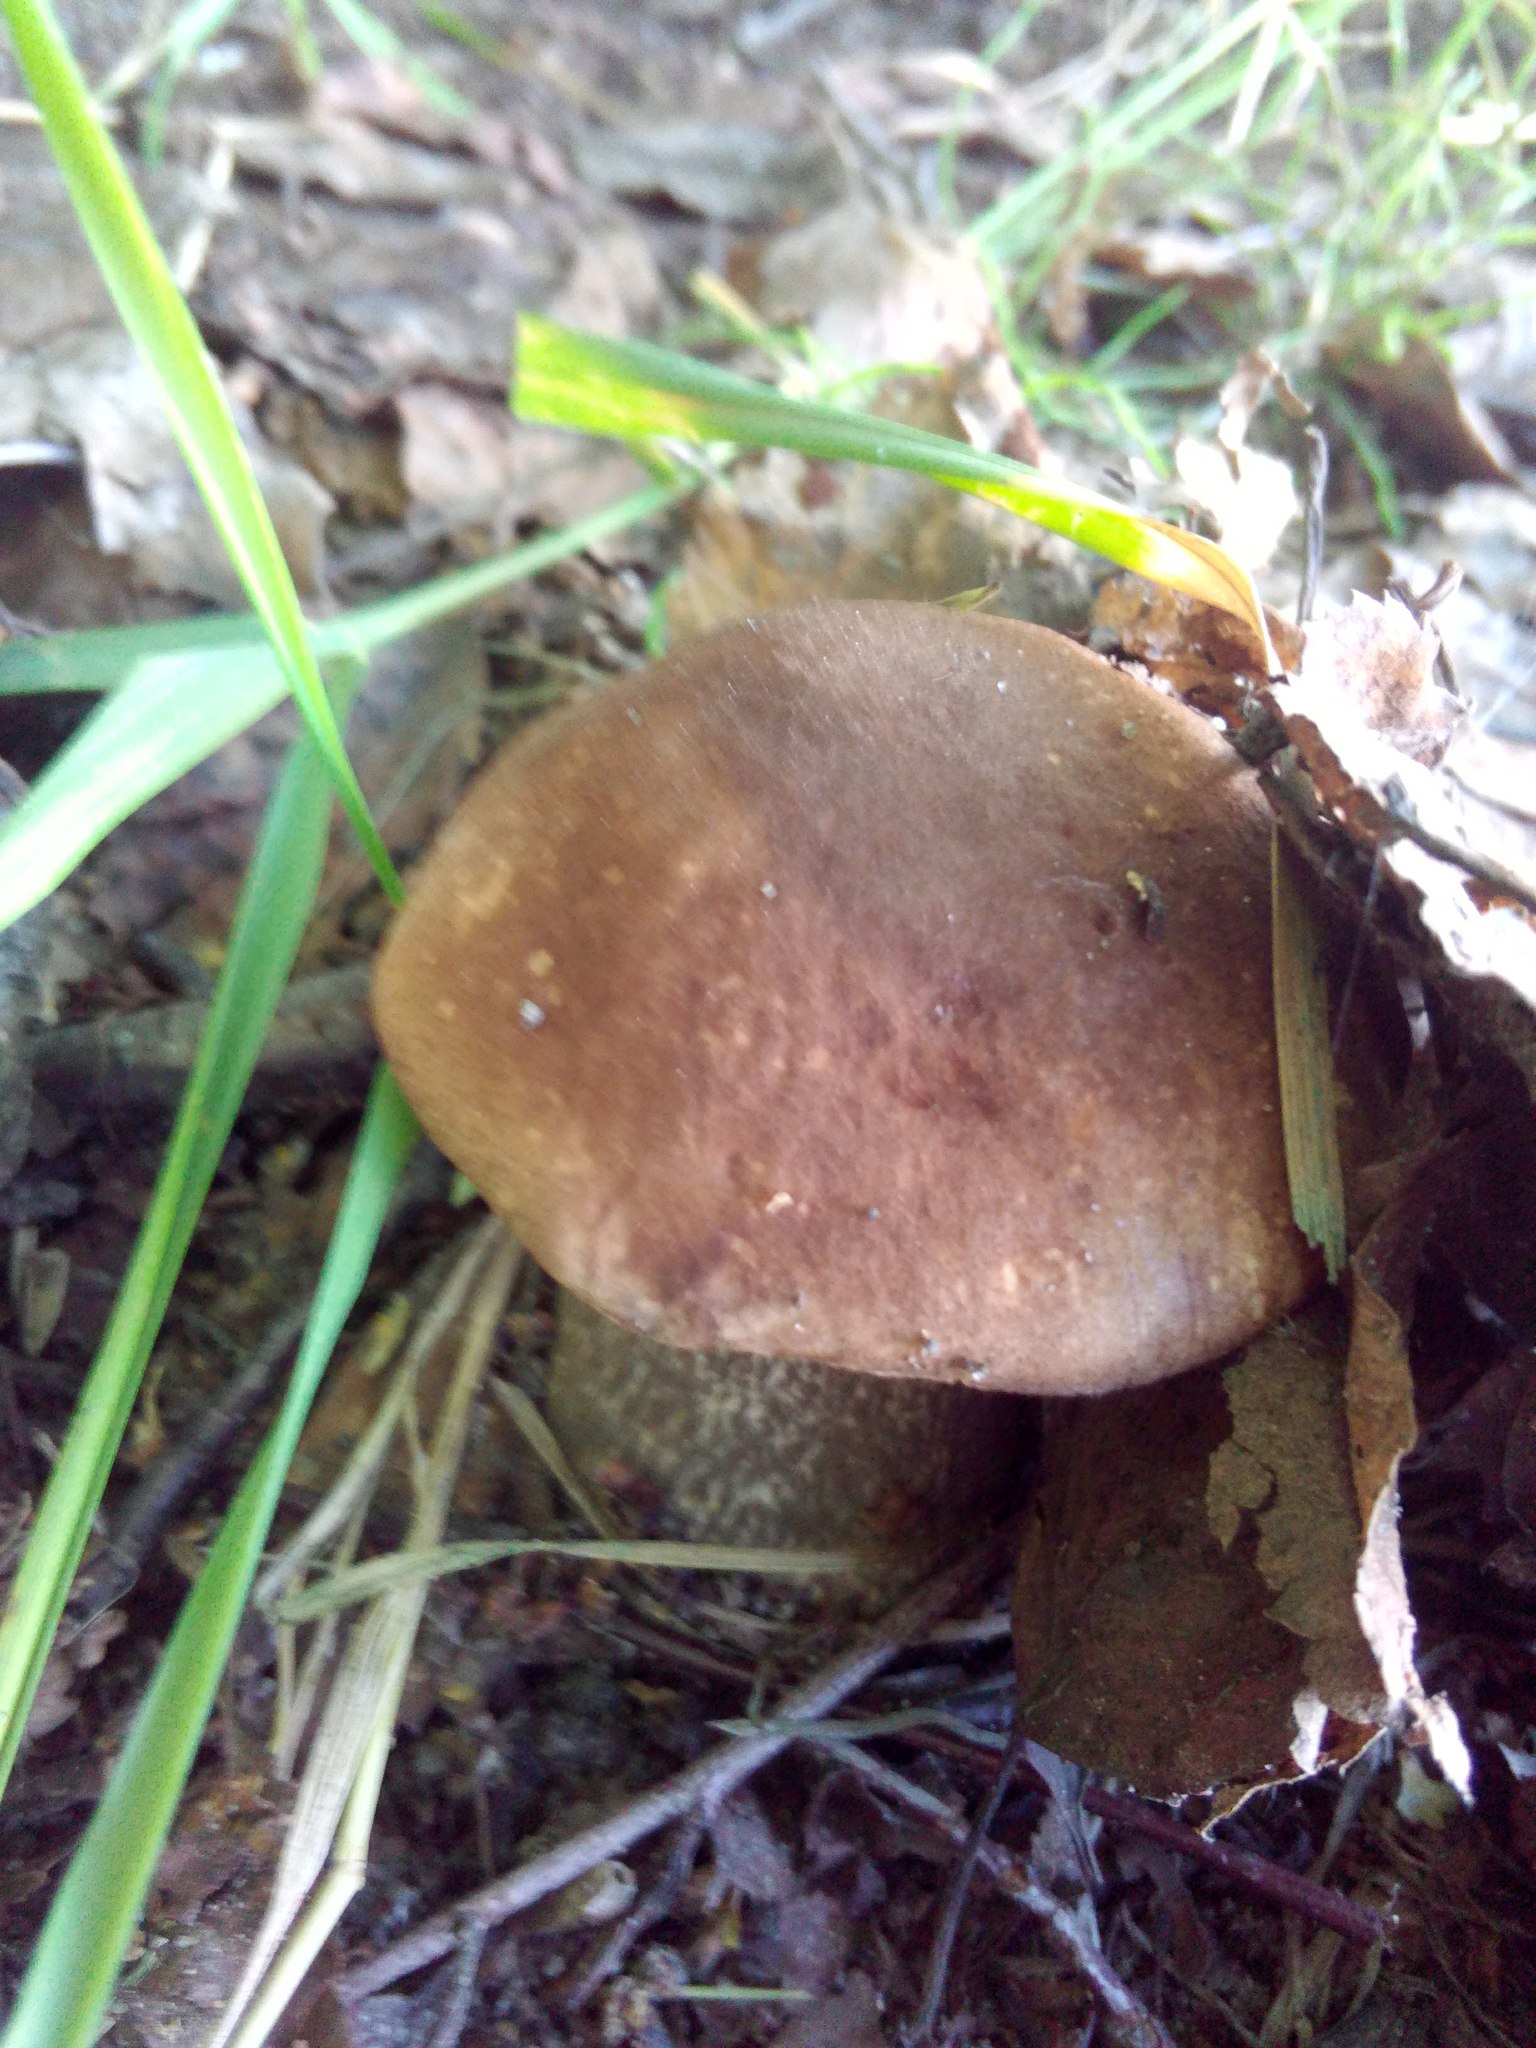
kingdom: Fungi
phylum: Basidiomycota
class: Agaricomycetes
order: Boletales
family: Boletaceae
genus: Leccinum
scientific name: Leccinum scabrum
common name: Blushing bolete
